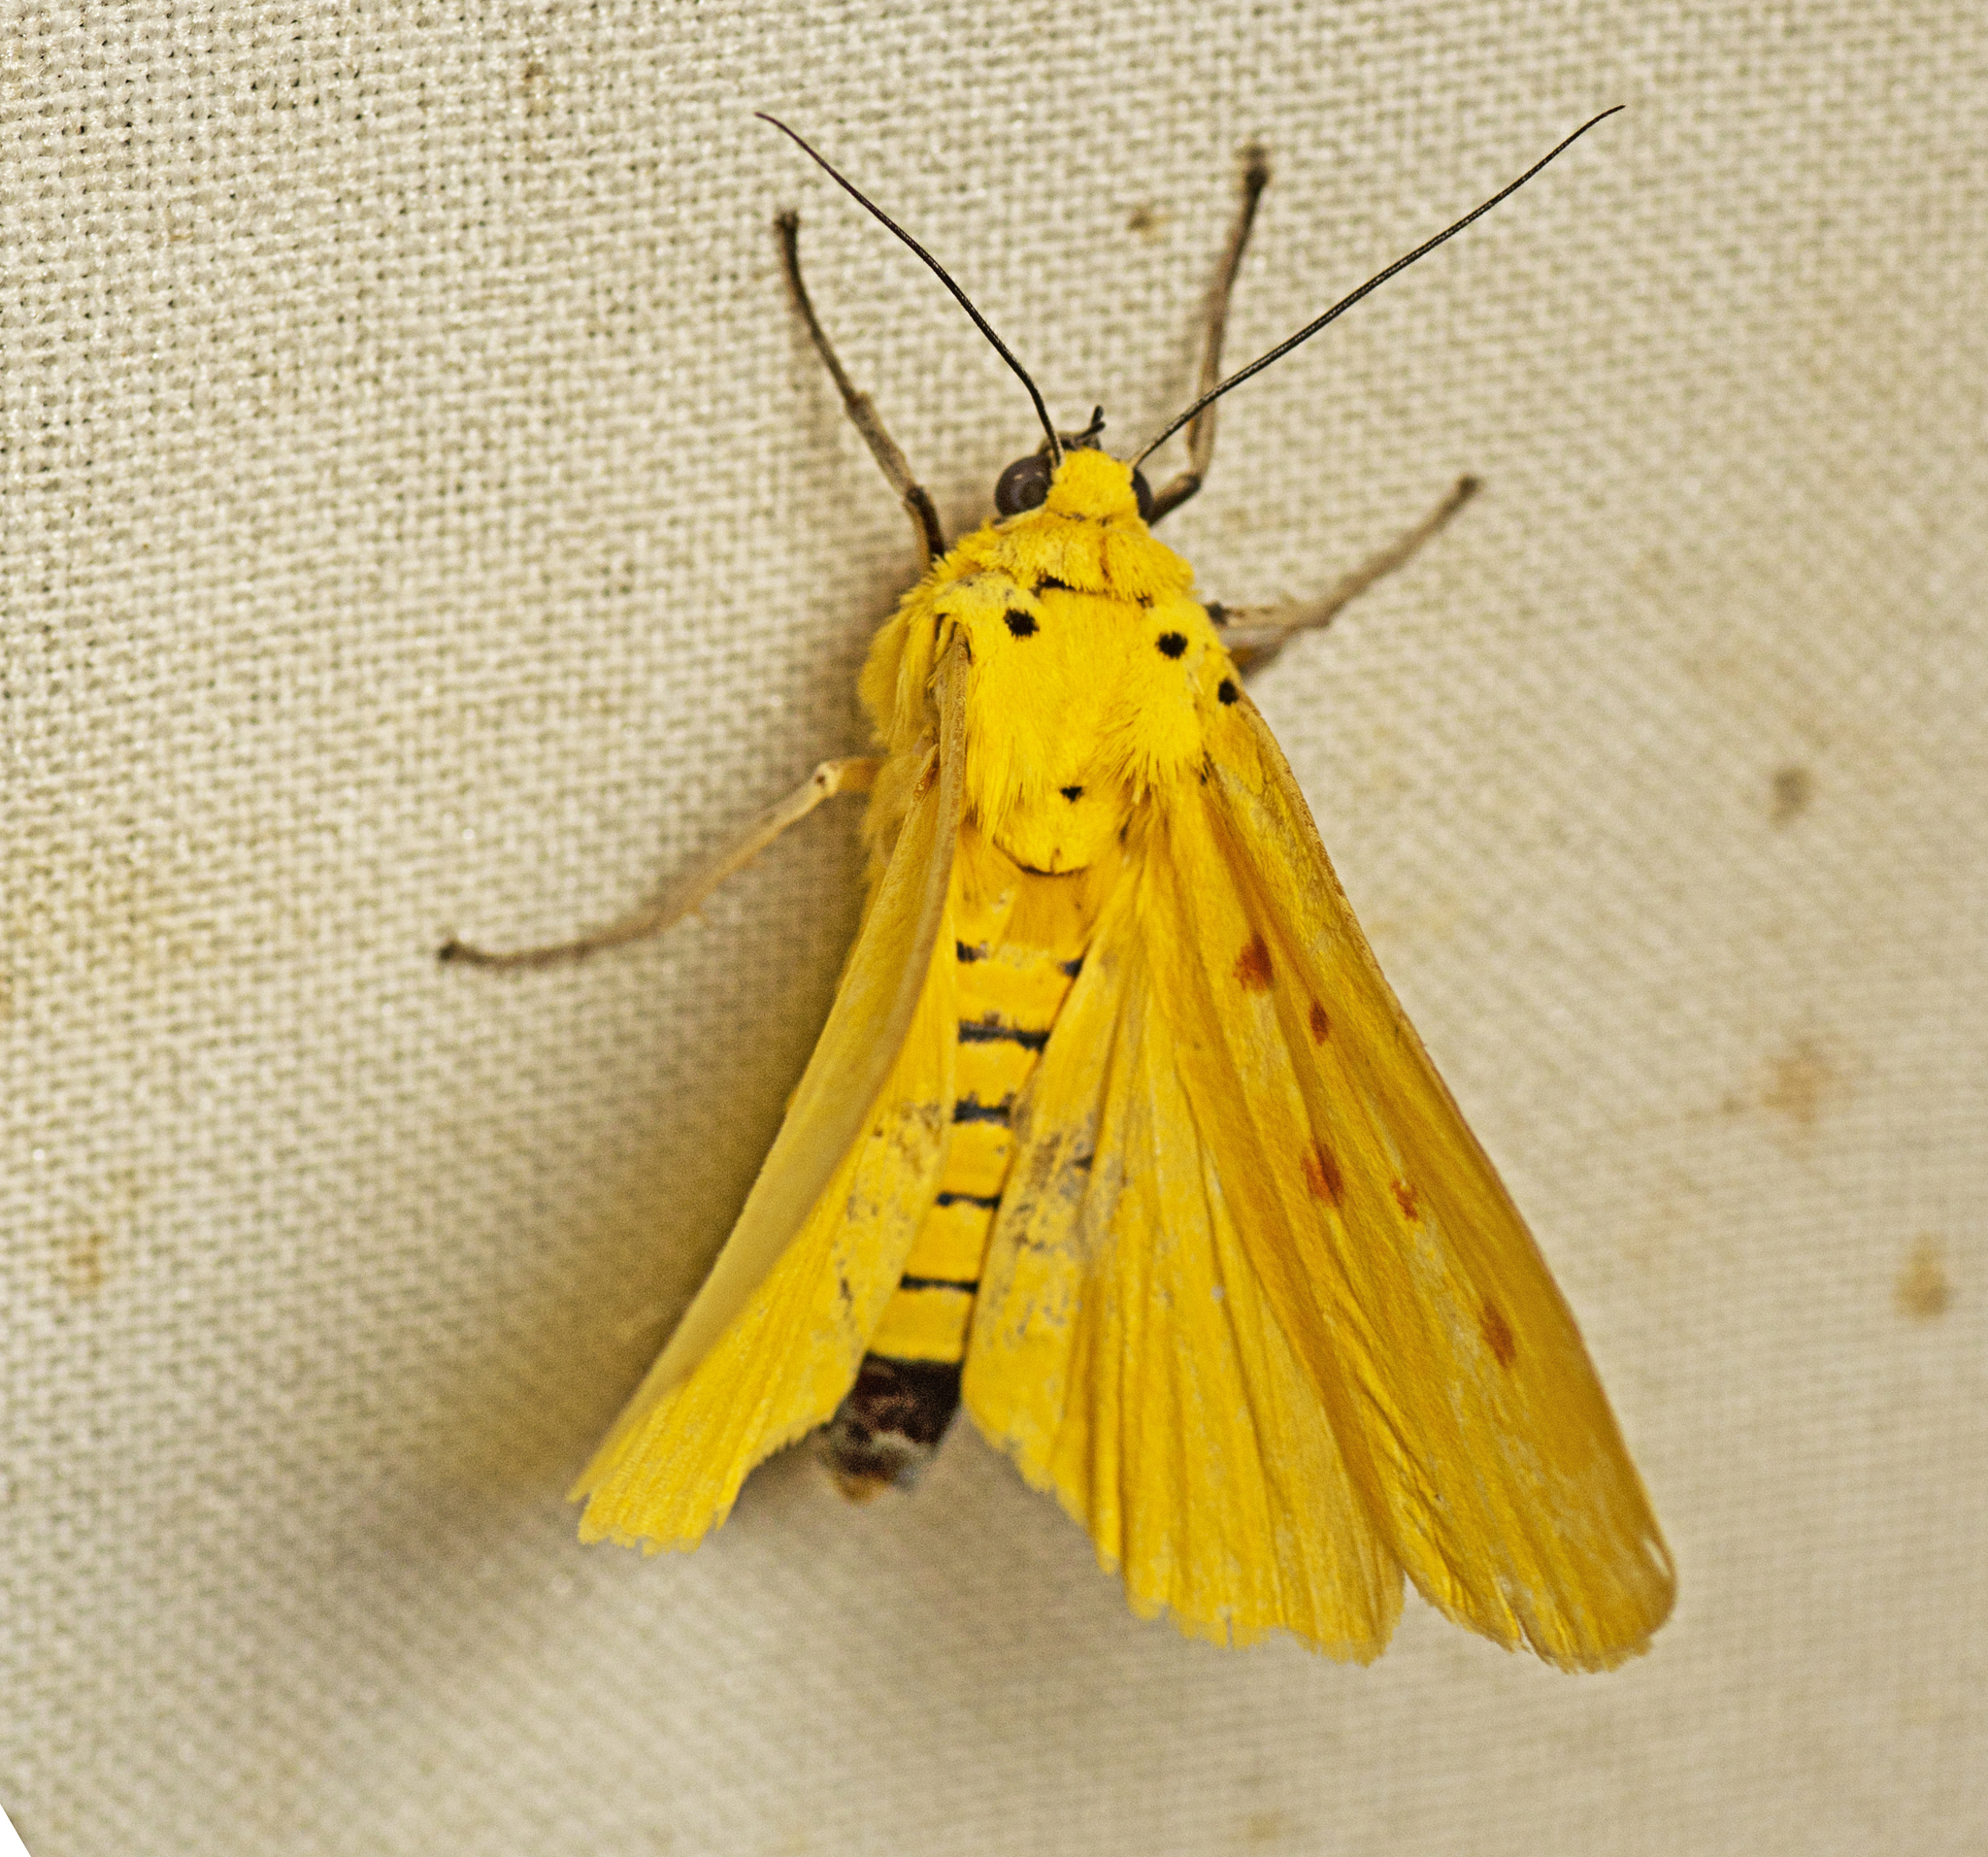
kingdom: Animalia
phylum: Arthropoda
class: Insecta
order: Lepidoptera
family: Noctuidae
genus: Agape
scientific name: Agape chloropyga
